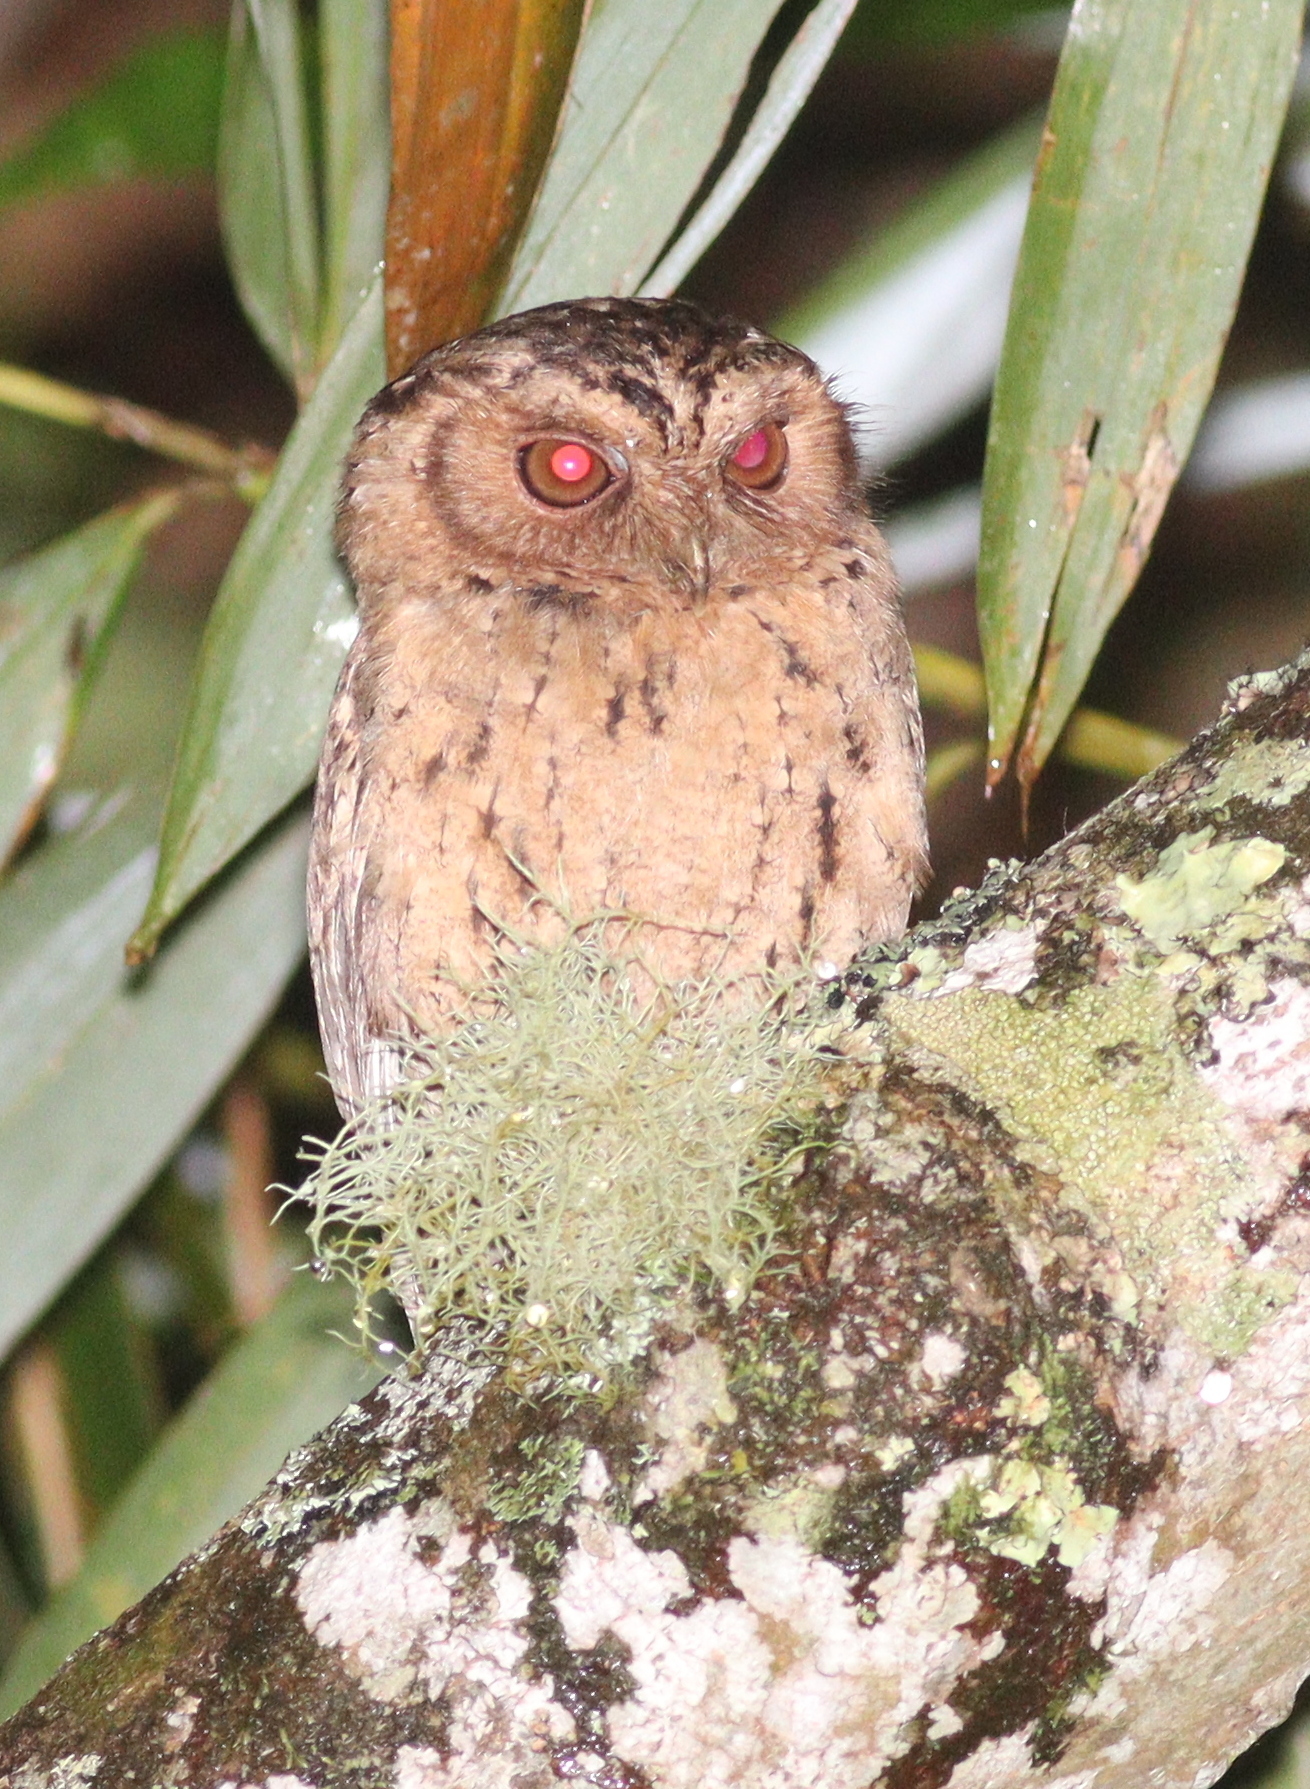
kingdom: Animalia
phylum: Chordata
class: Aves
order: Strigiformes
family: Strigidae
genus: Otus
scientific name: Otus lempiji
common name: Sunda scops-owl
